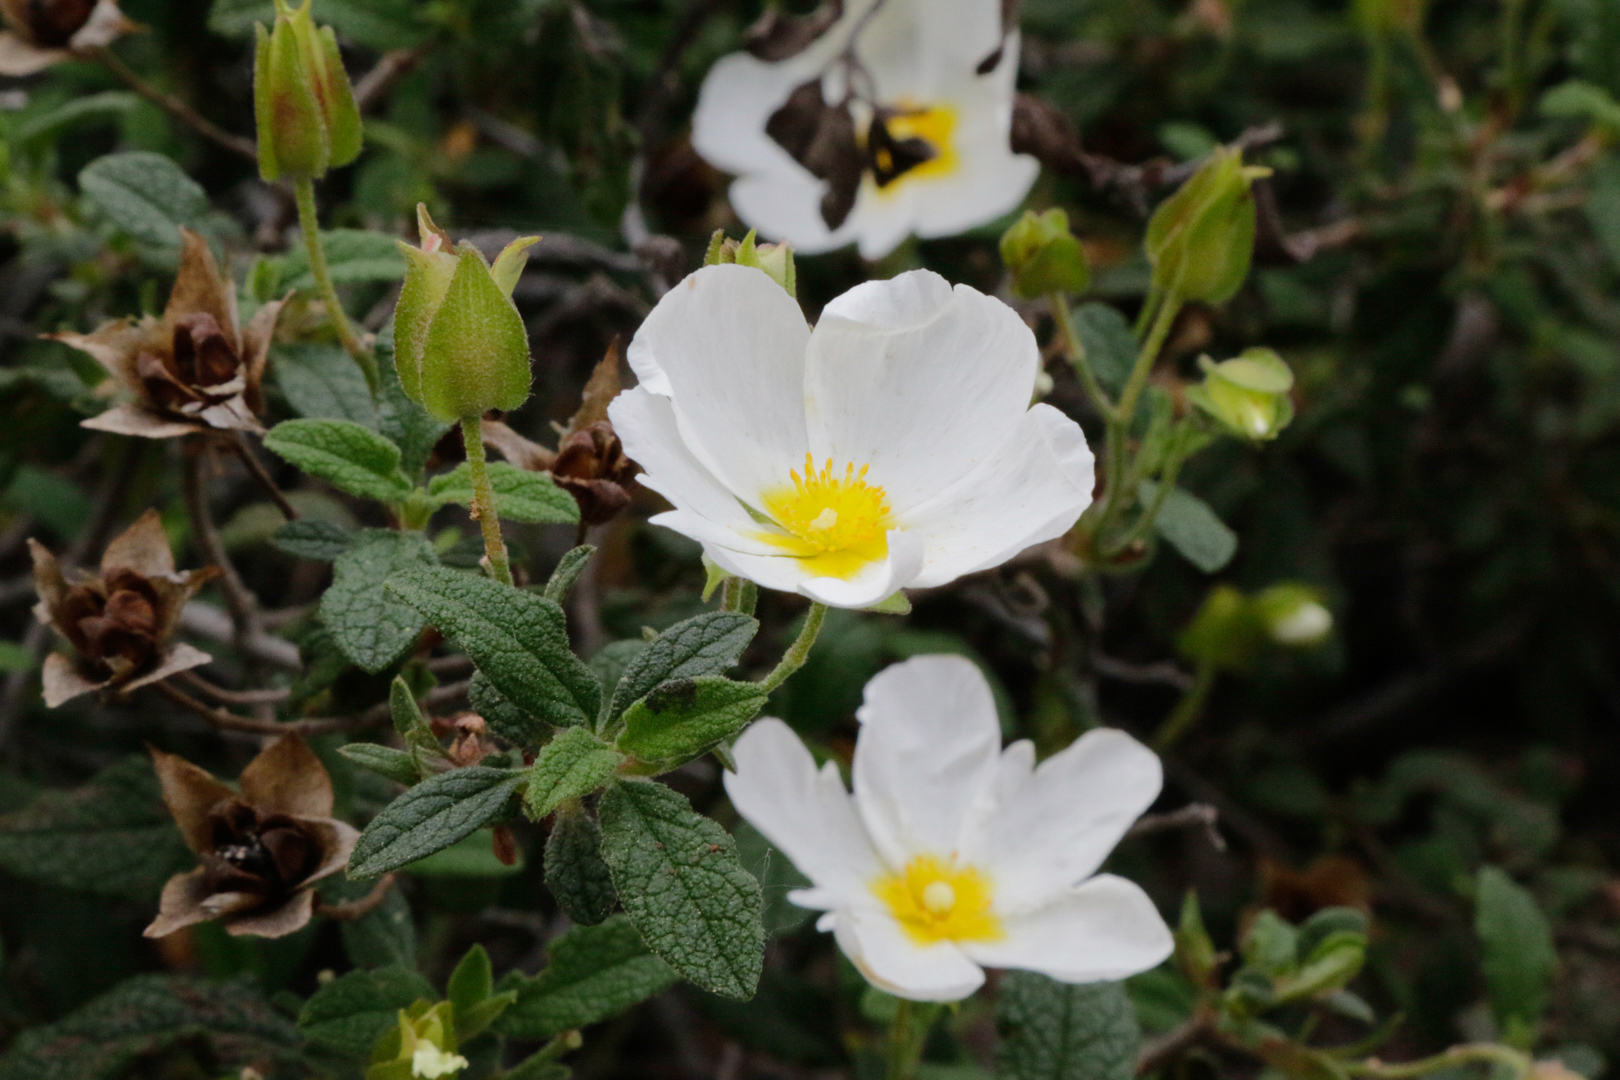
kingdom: Plantae
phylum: Tracheophyta
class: Magnoliopsida
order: Malvales
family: Cistaceae
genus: Cistus
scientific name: Cistus salviifolius
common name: Salvia cistus
